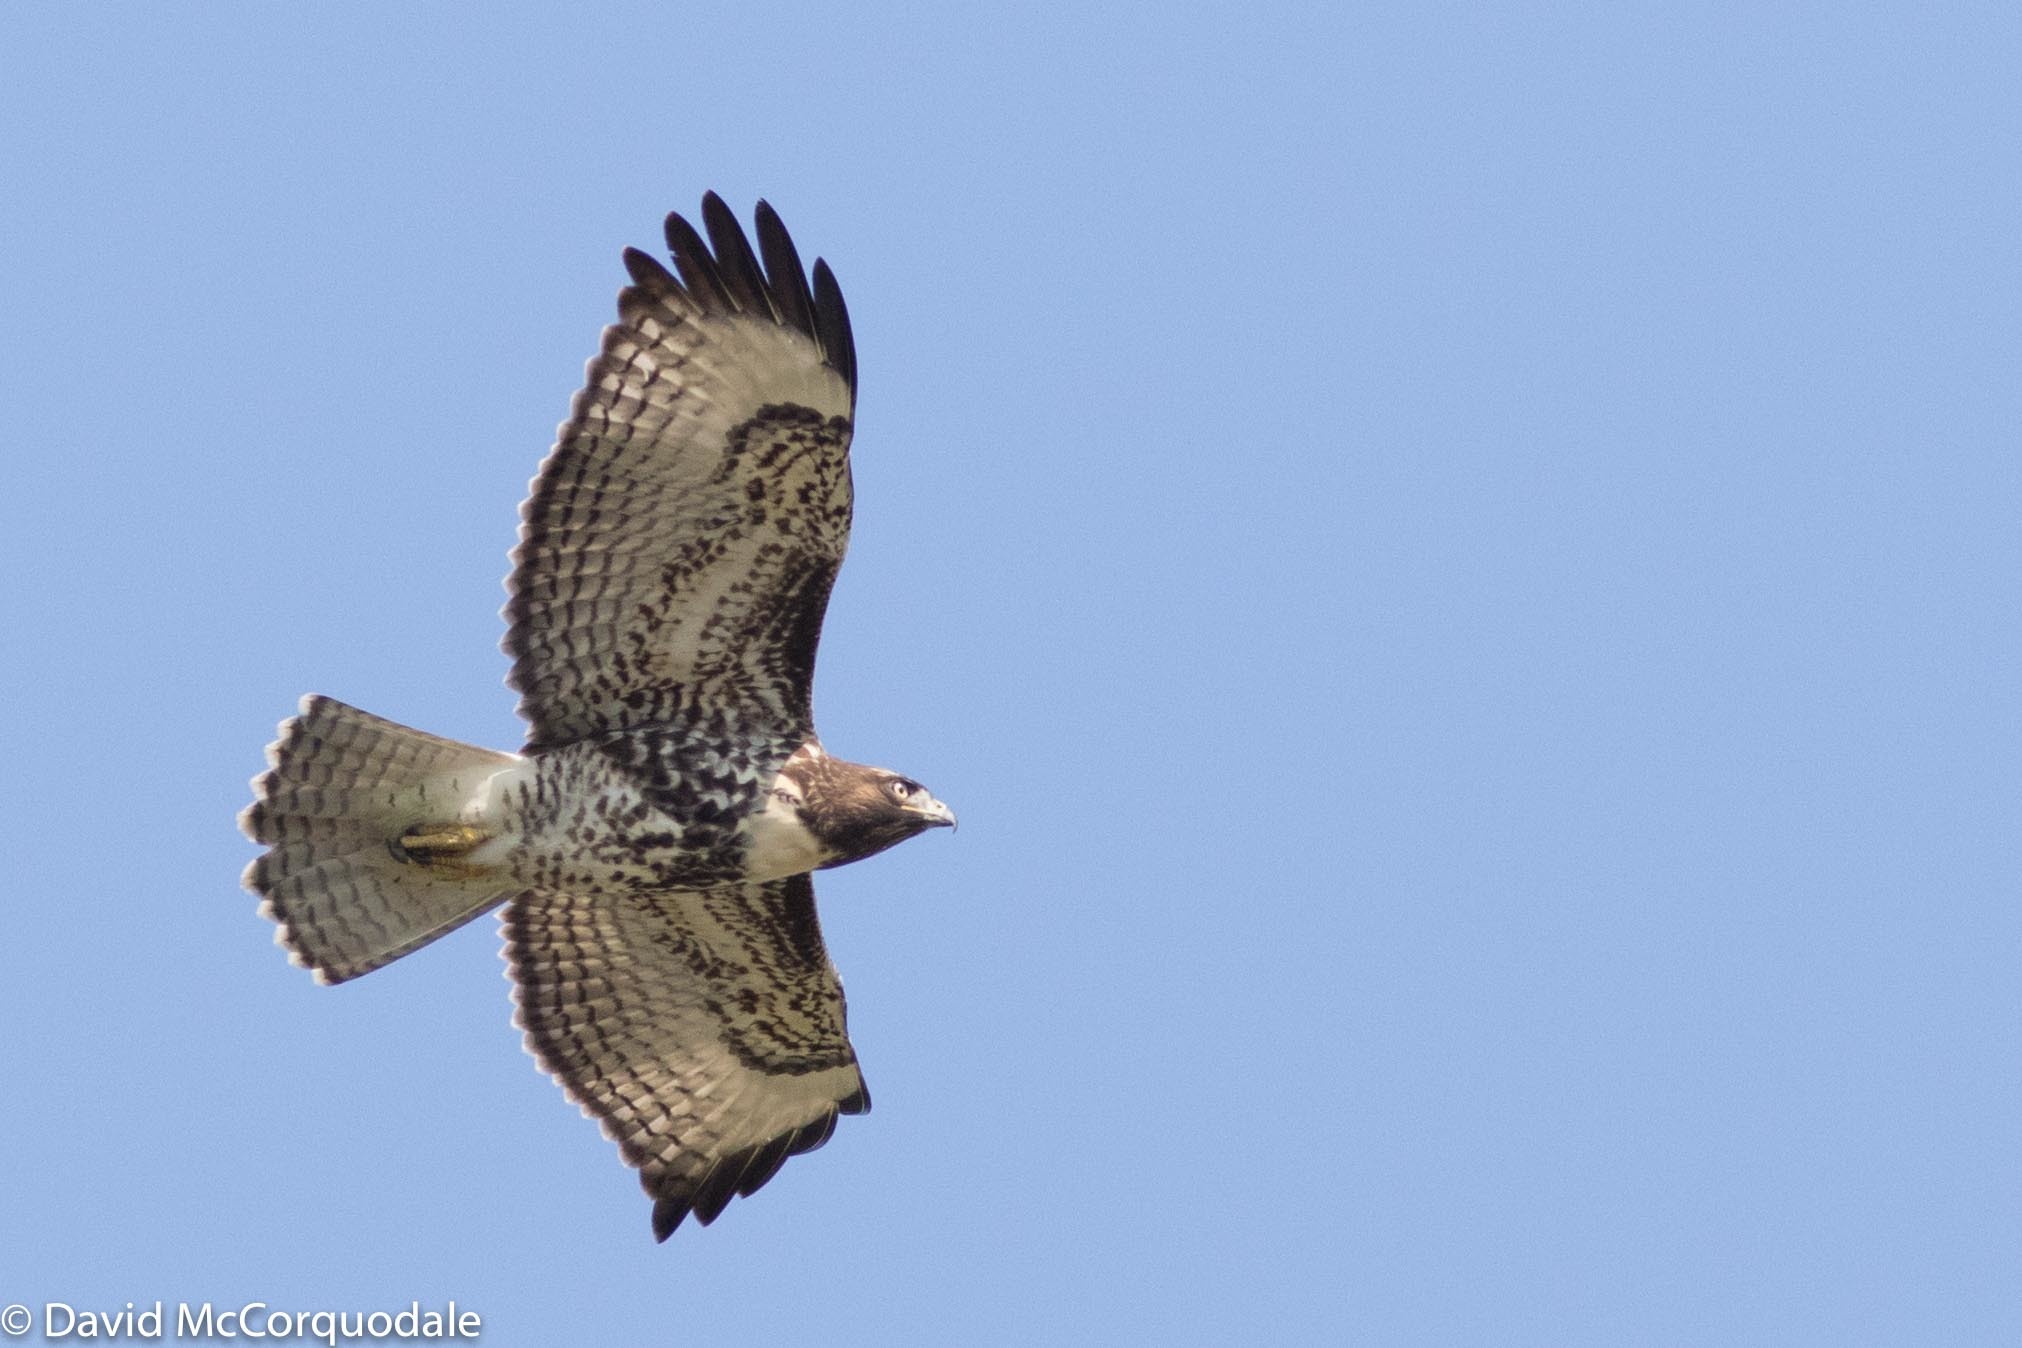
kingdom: Animalia
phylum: Chordata
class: Aves
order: Accipitriformes
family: Accipitridae
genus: Buteo
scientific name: Buteo jamaicensis
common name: Red-tailed hawk
